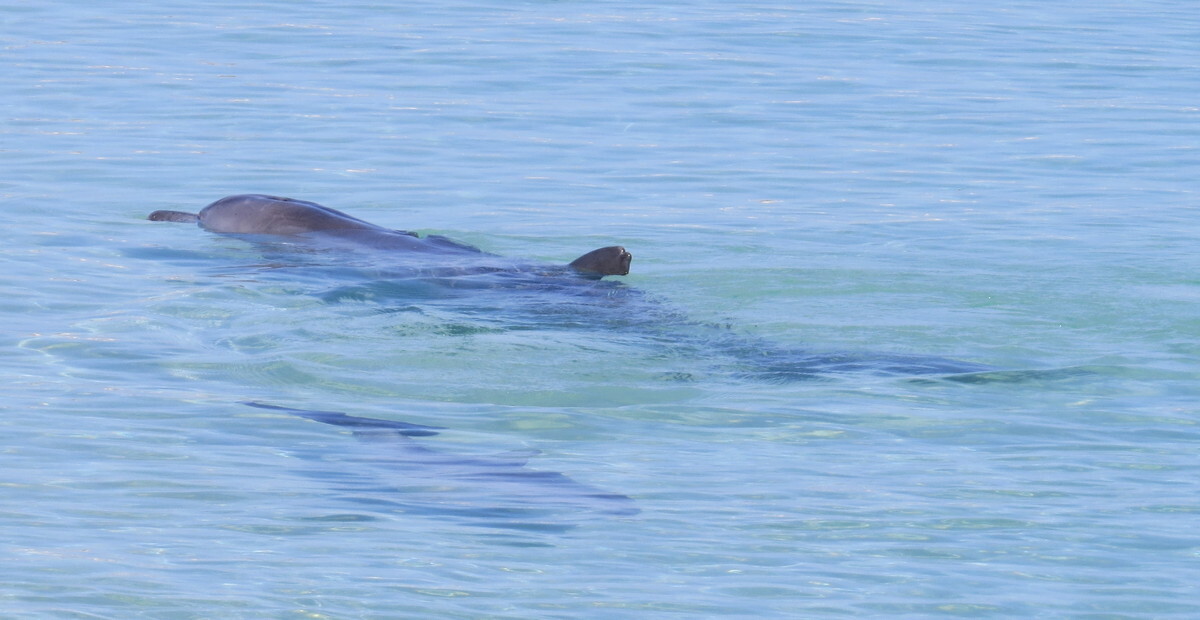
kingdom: Animalia
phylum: Chordata
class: Mammalia
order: Cetacea
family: Delphinidae
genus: Tursiops
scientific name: Tursiops aduncus
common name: Indo-pacific bottlenose dolphin
